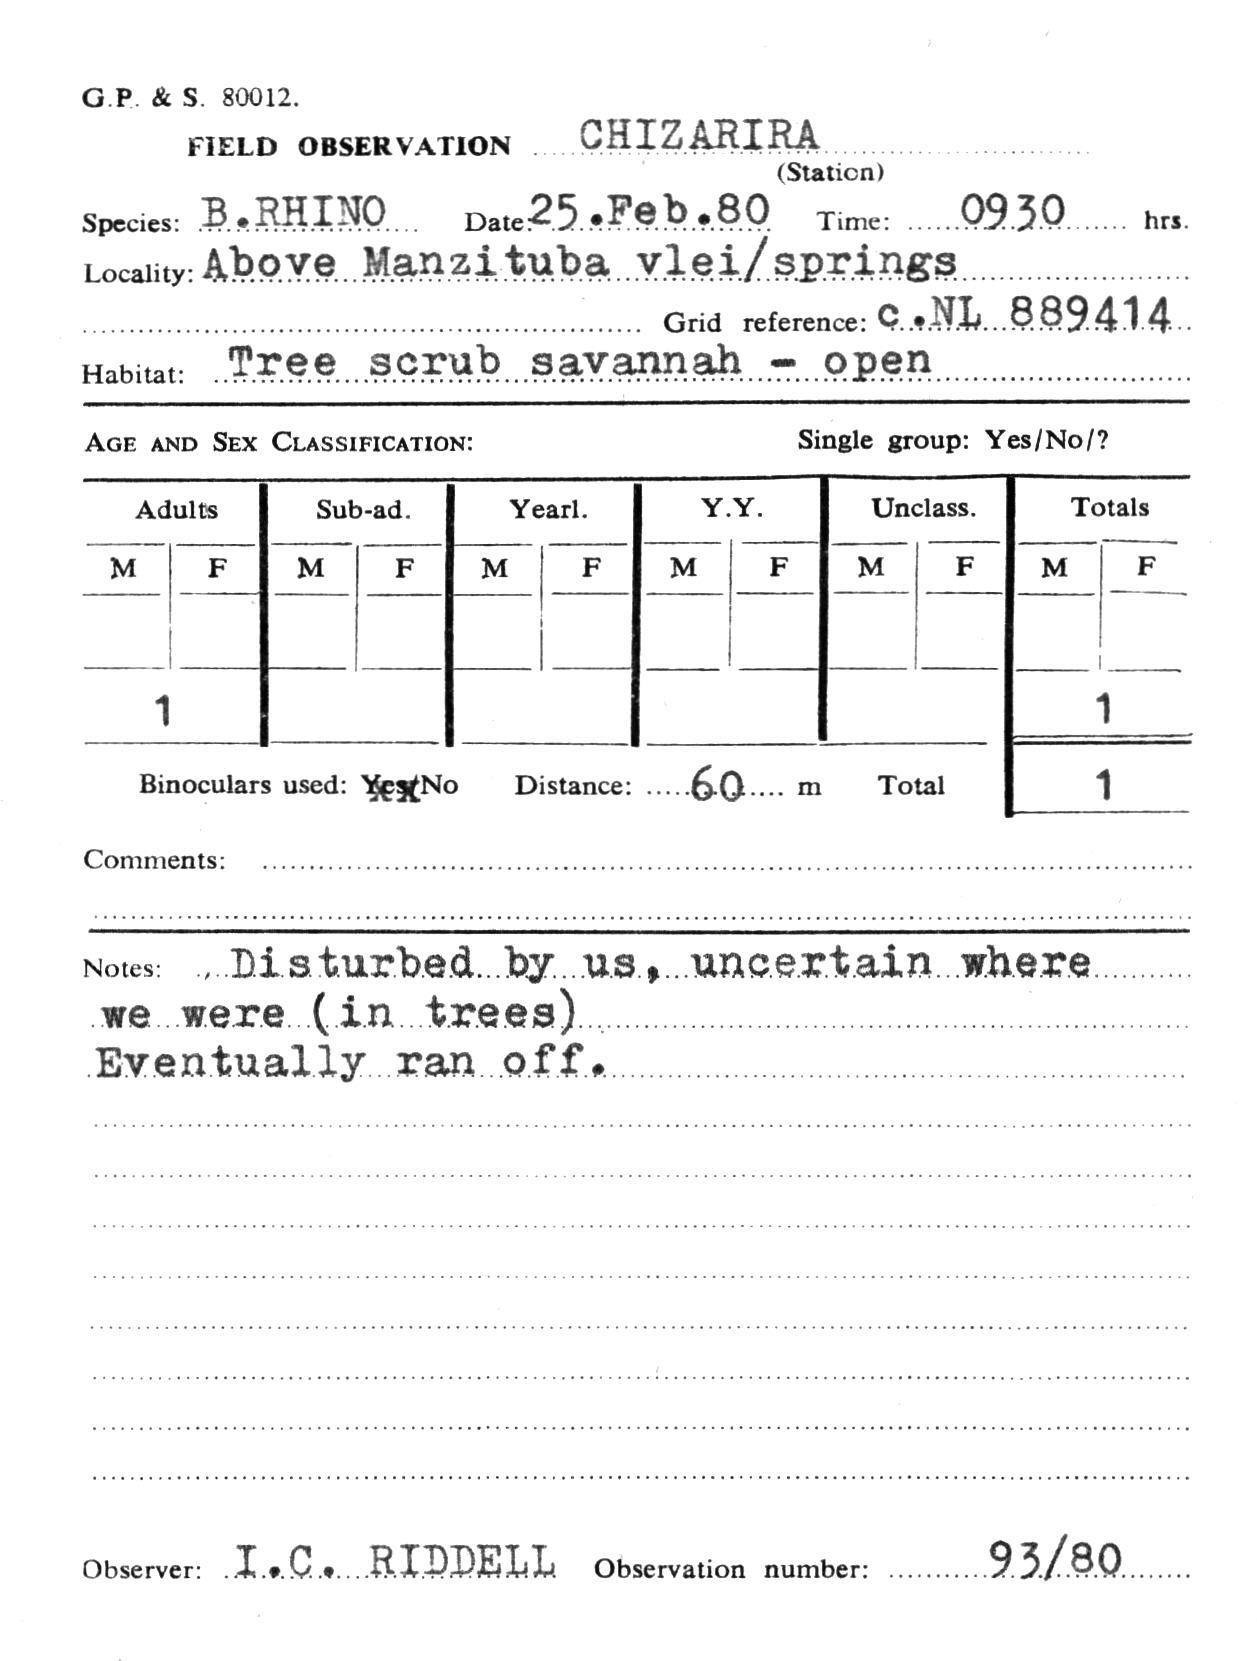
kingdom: Animalia
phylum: Chordata
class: Mammalia
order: Perissodactyla
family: Rhinocerotidae
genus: Diceros
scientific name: Diceros bicornis
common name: Black rhinoceros
